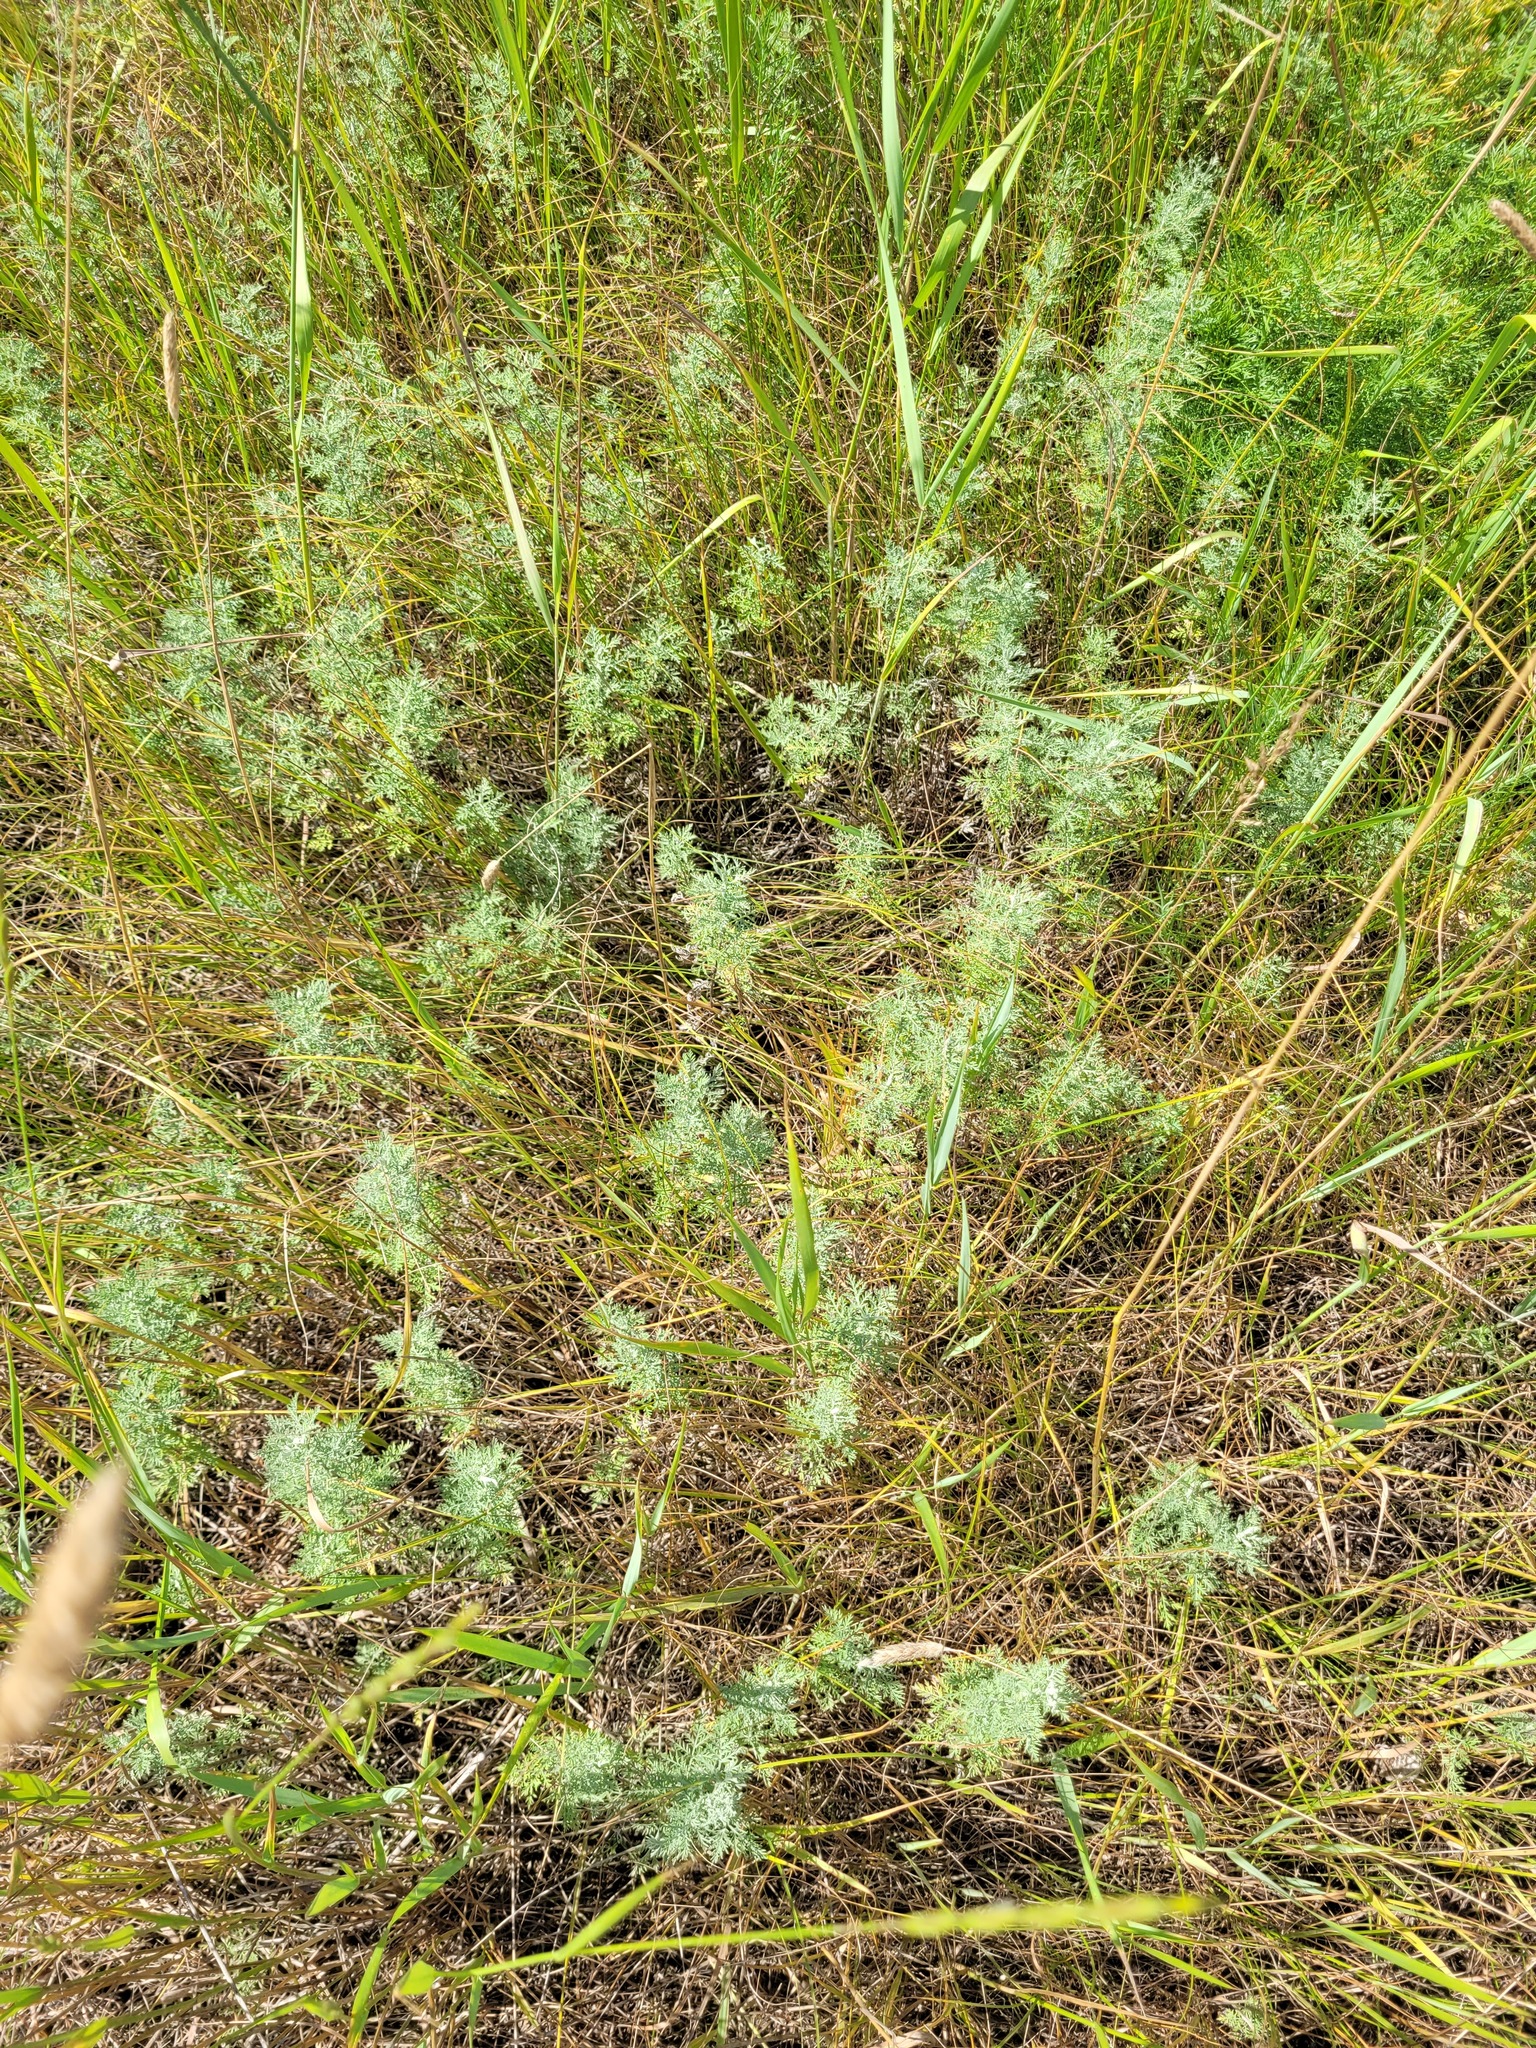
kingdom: Plantae
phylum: Tracheophyta
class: Magnoliopsida
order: Asterales
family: Asteraceae
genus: Artemisia
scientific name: Artemisia pontica
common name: Roman wormwood
